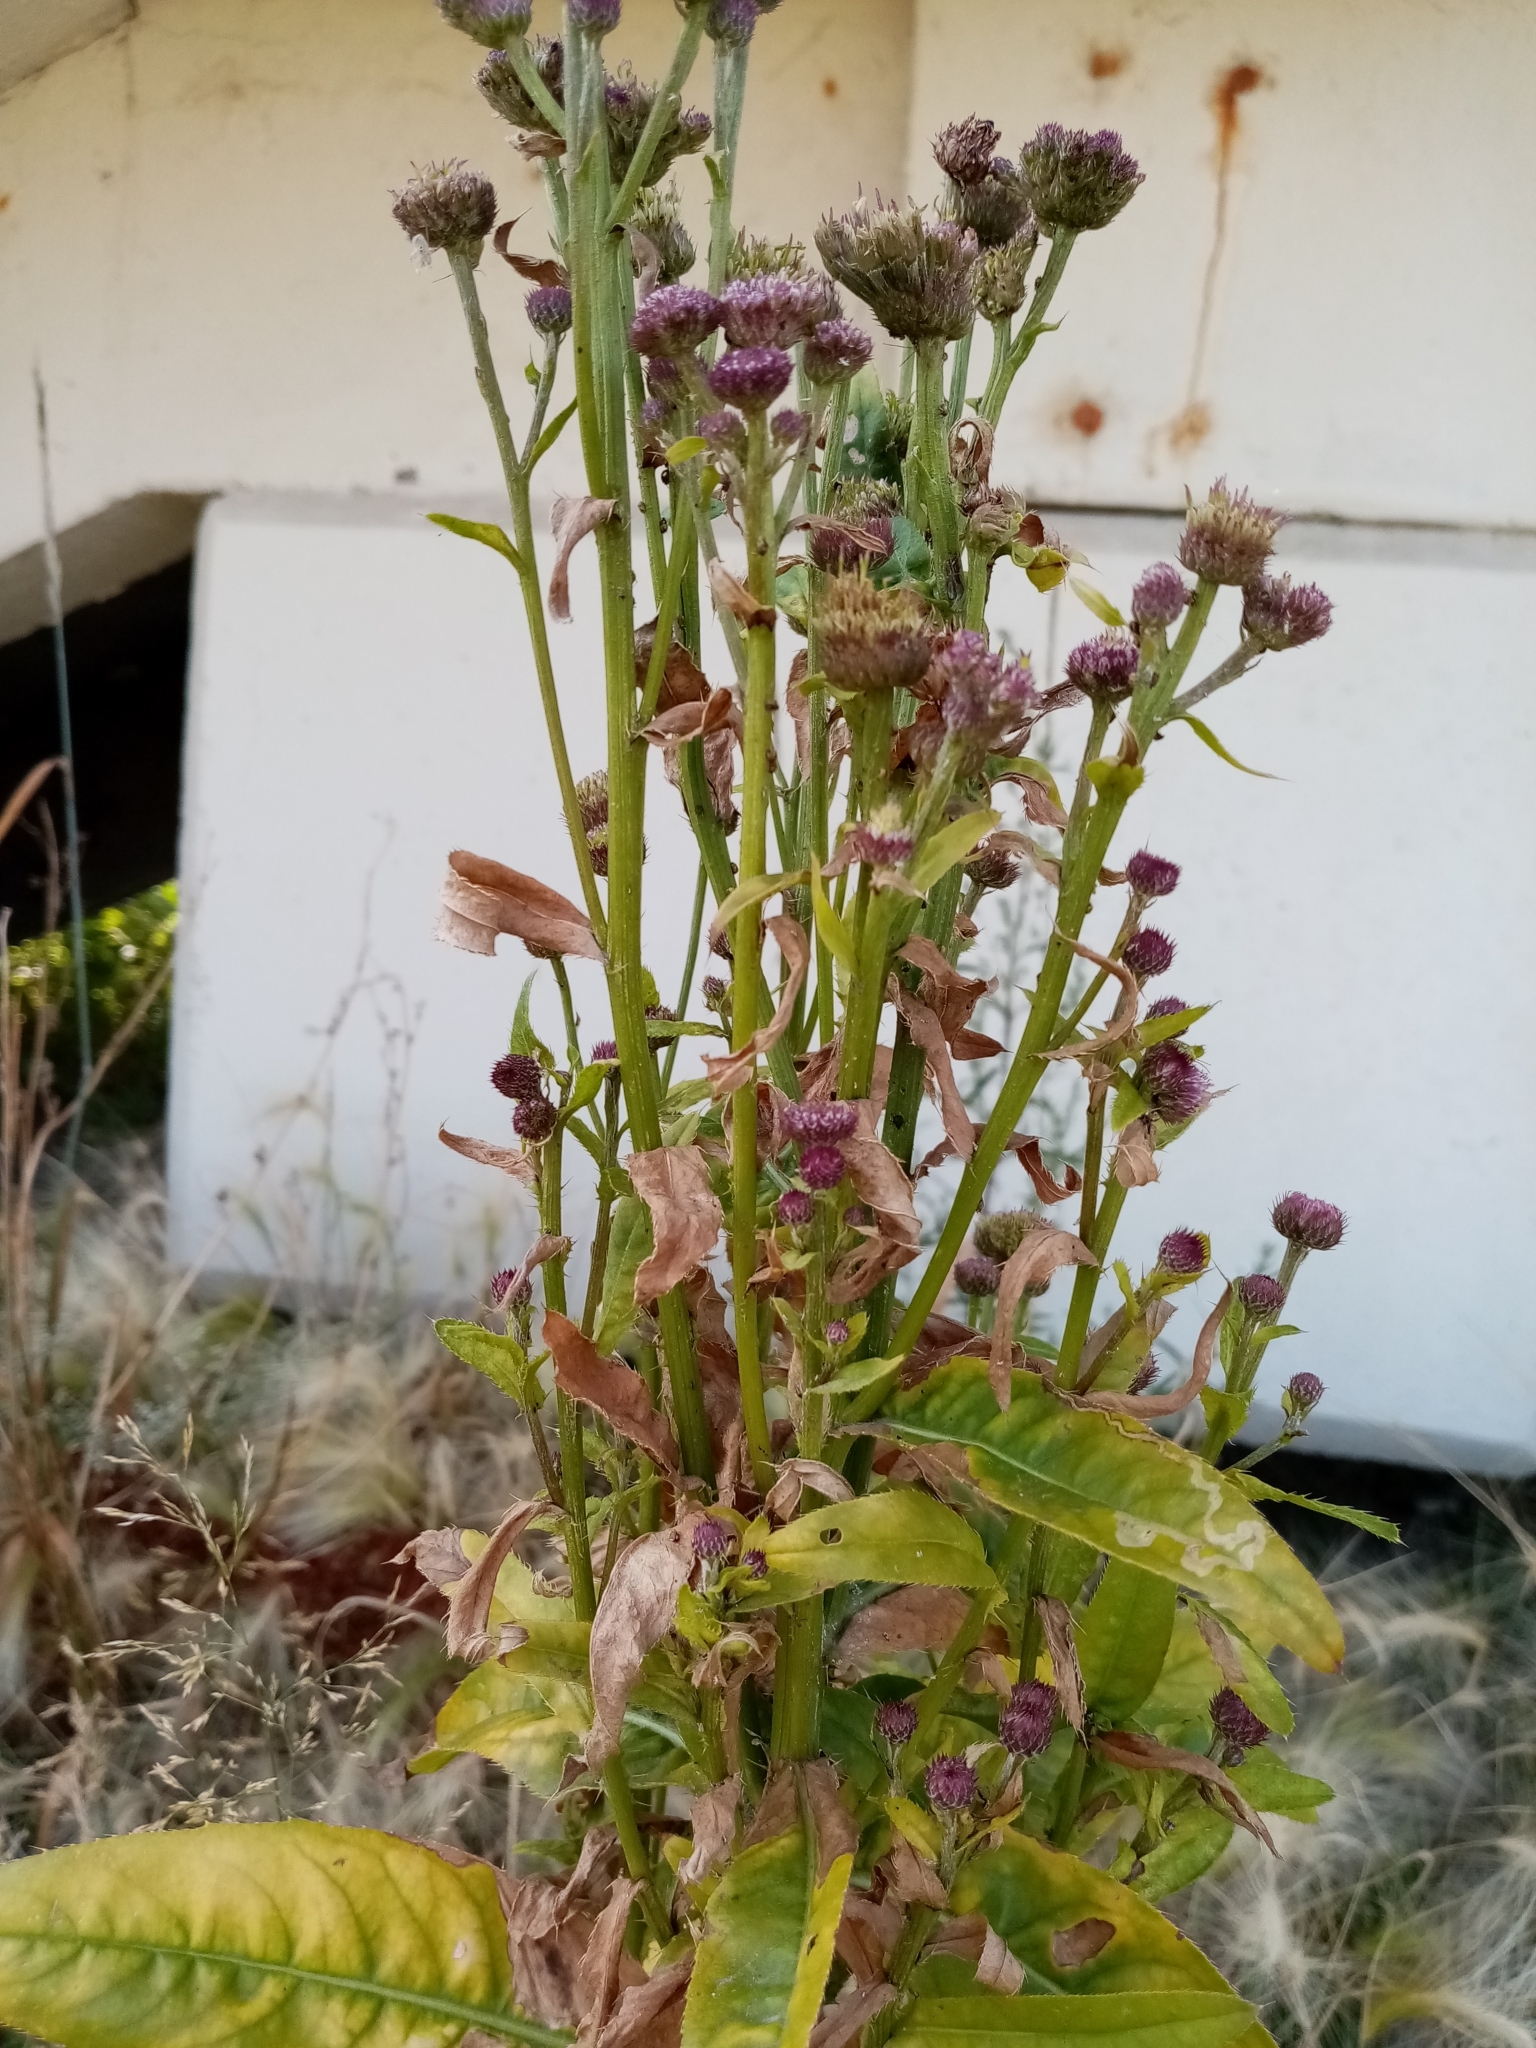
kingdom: Plantae
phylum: Tracheophyta
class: Magnoliopsida
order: Asterales
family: Asteraceae
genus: Cirsium
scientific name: Cirsium arvense
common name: Creeping thistle
